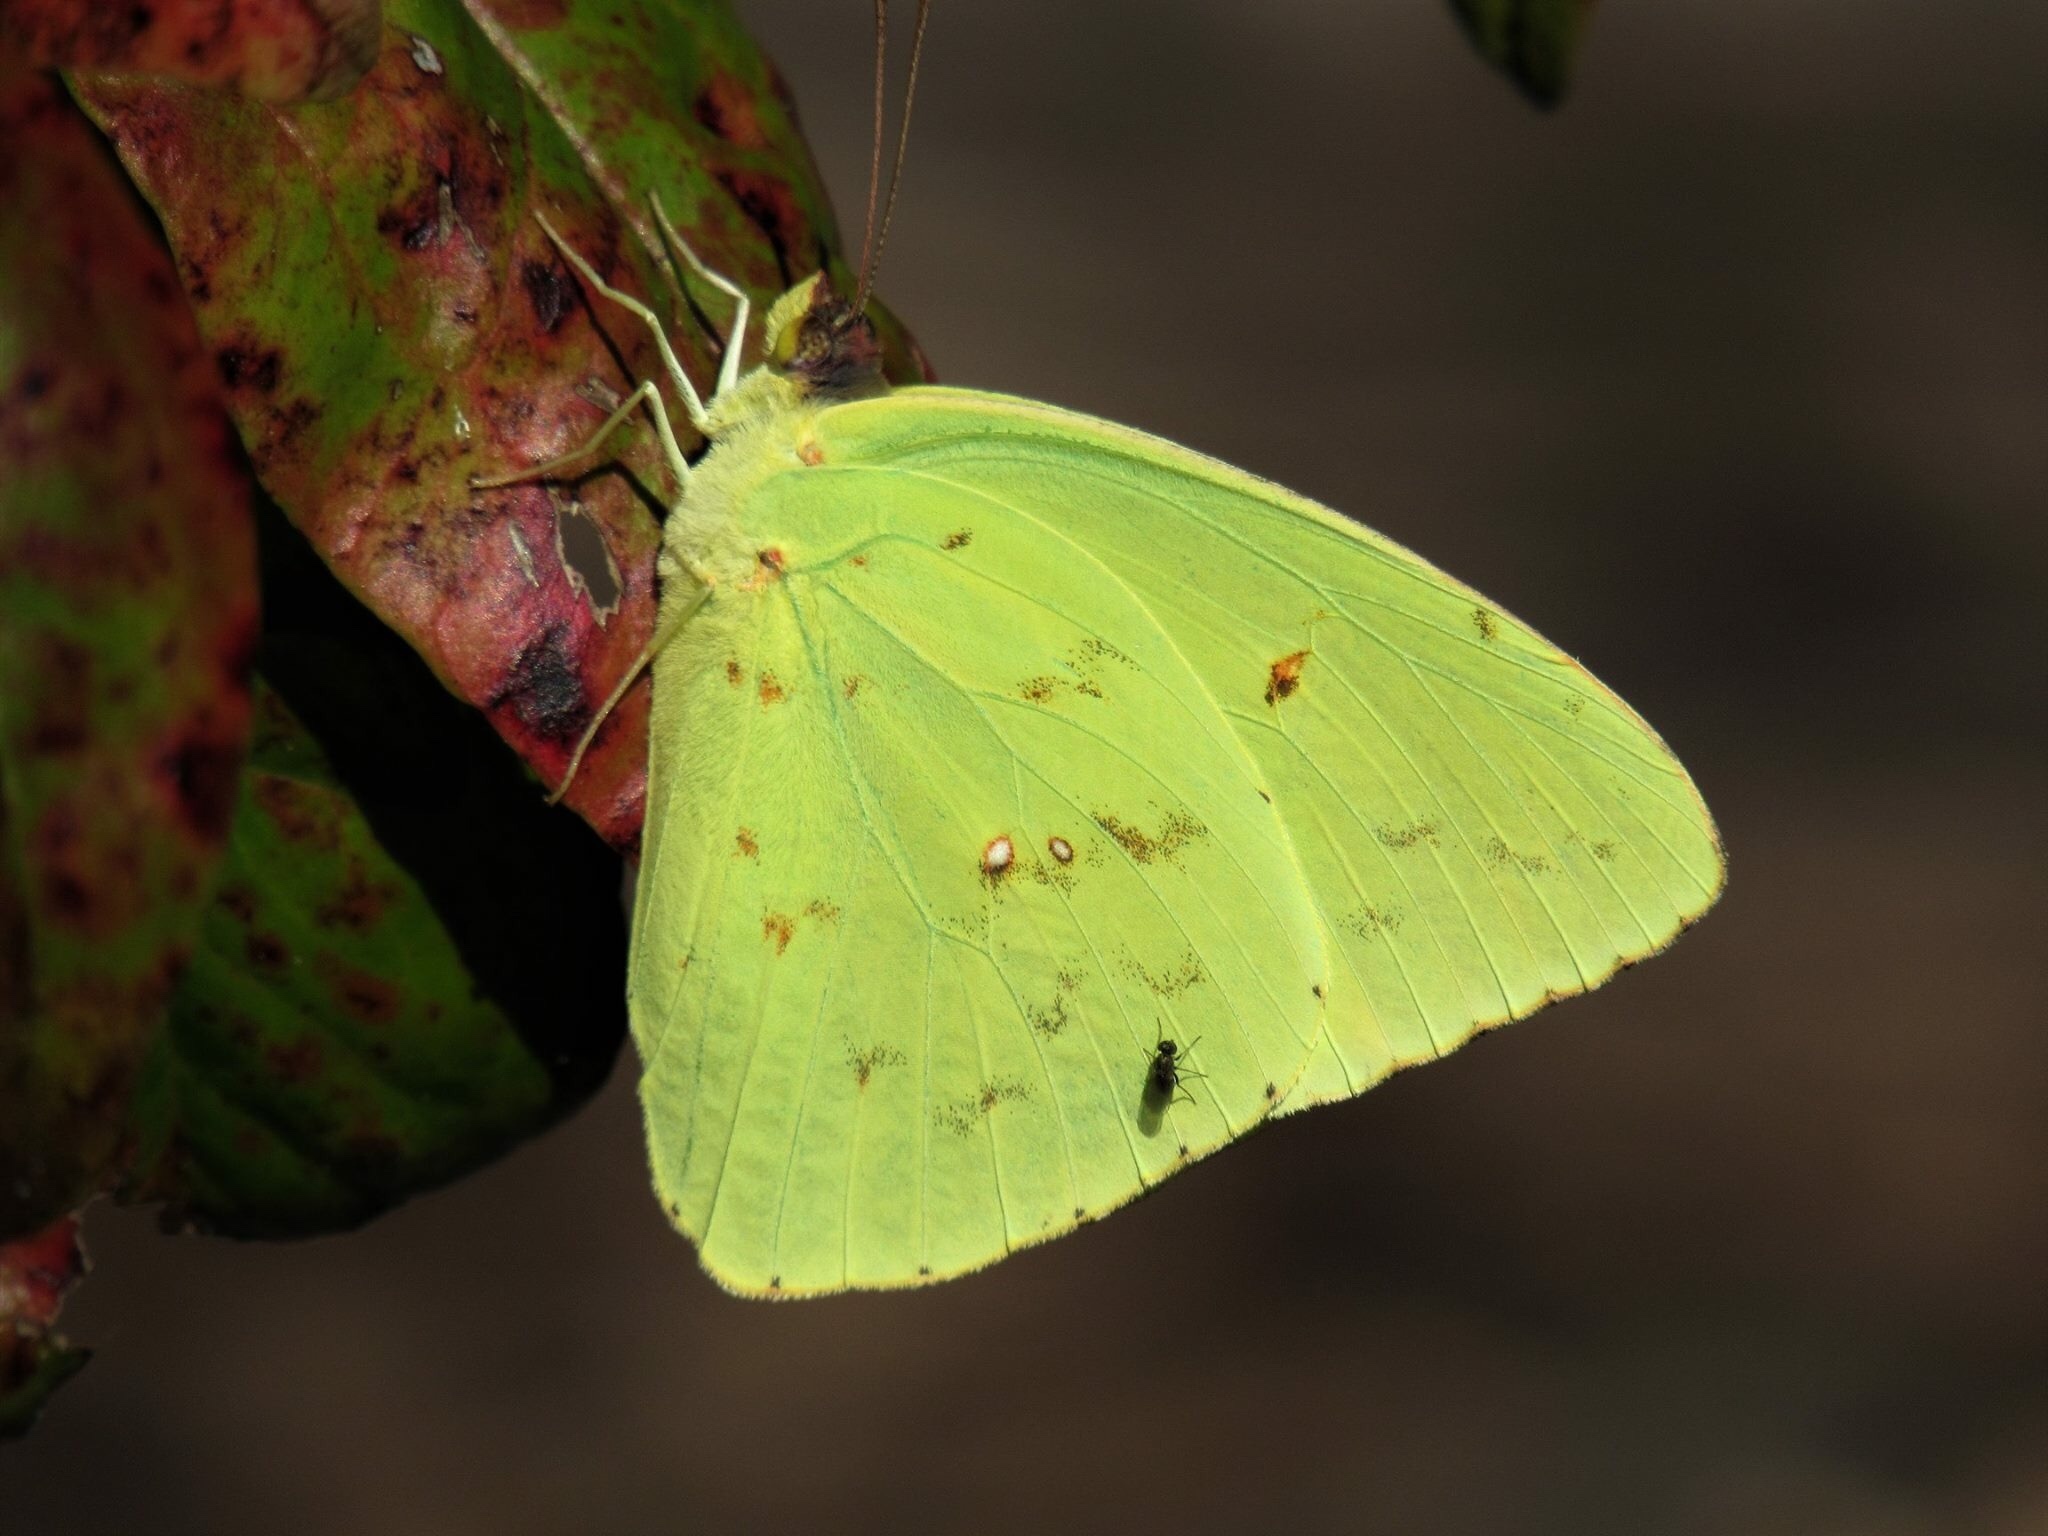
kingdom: Animalia
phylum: Arthropoda
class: Insecta
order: Lepidoptera
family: Pieridae
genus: Phoebis
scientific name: Phoebis sennae
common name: Cloudless sulphur
